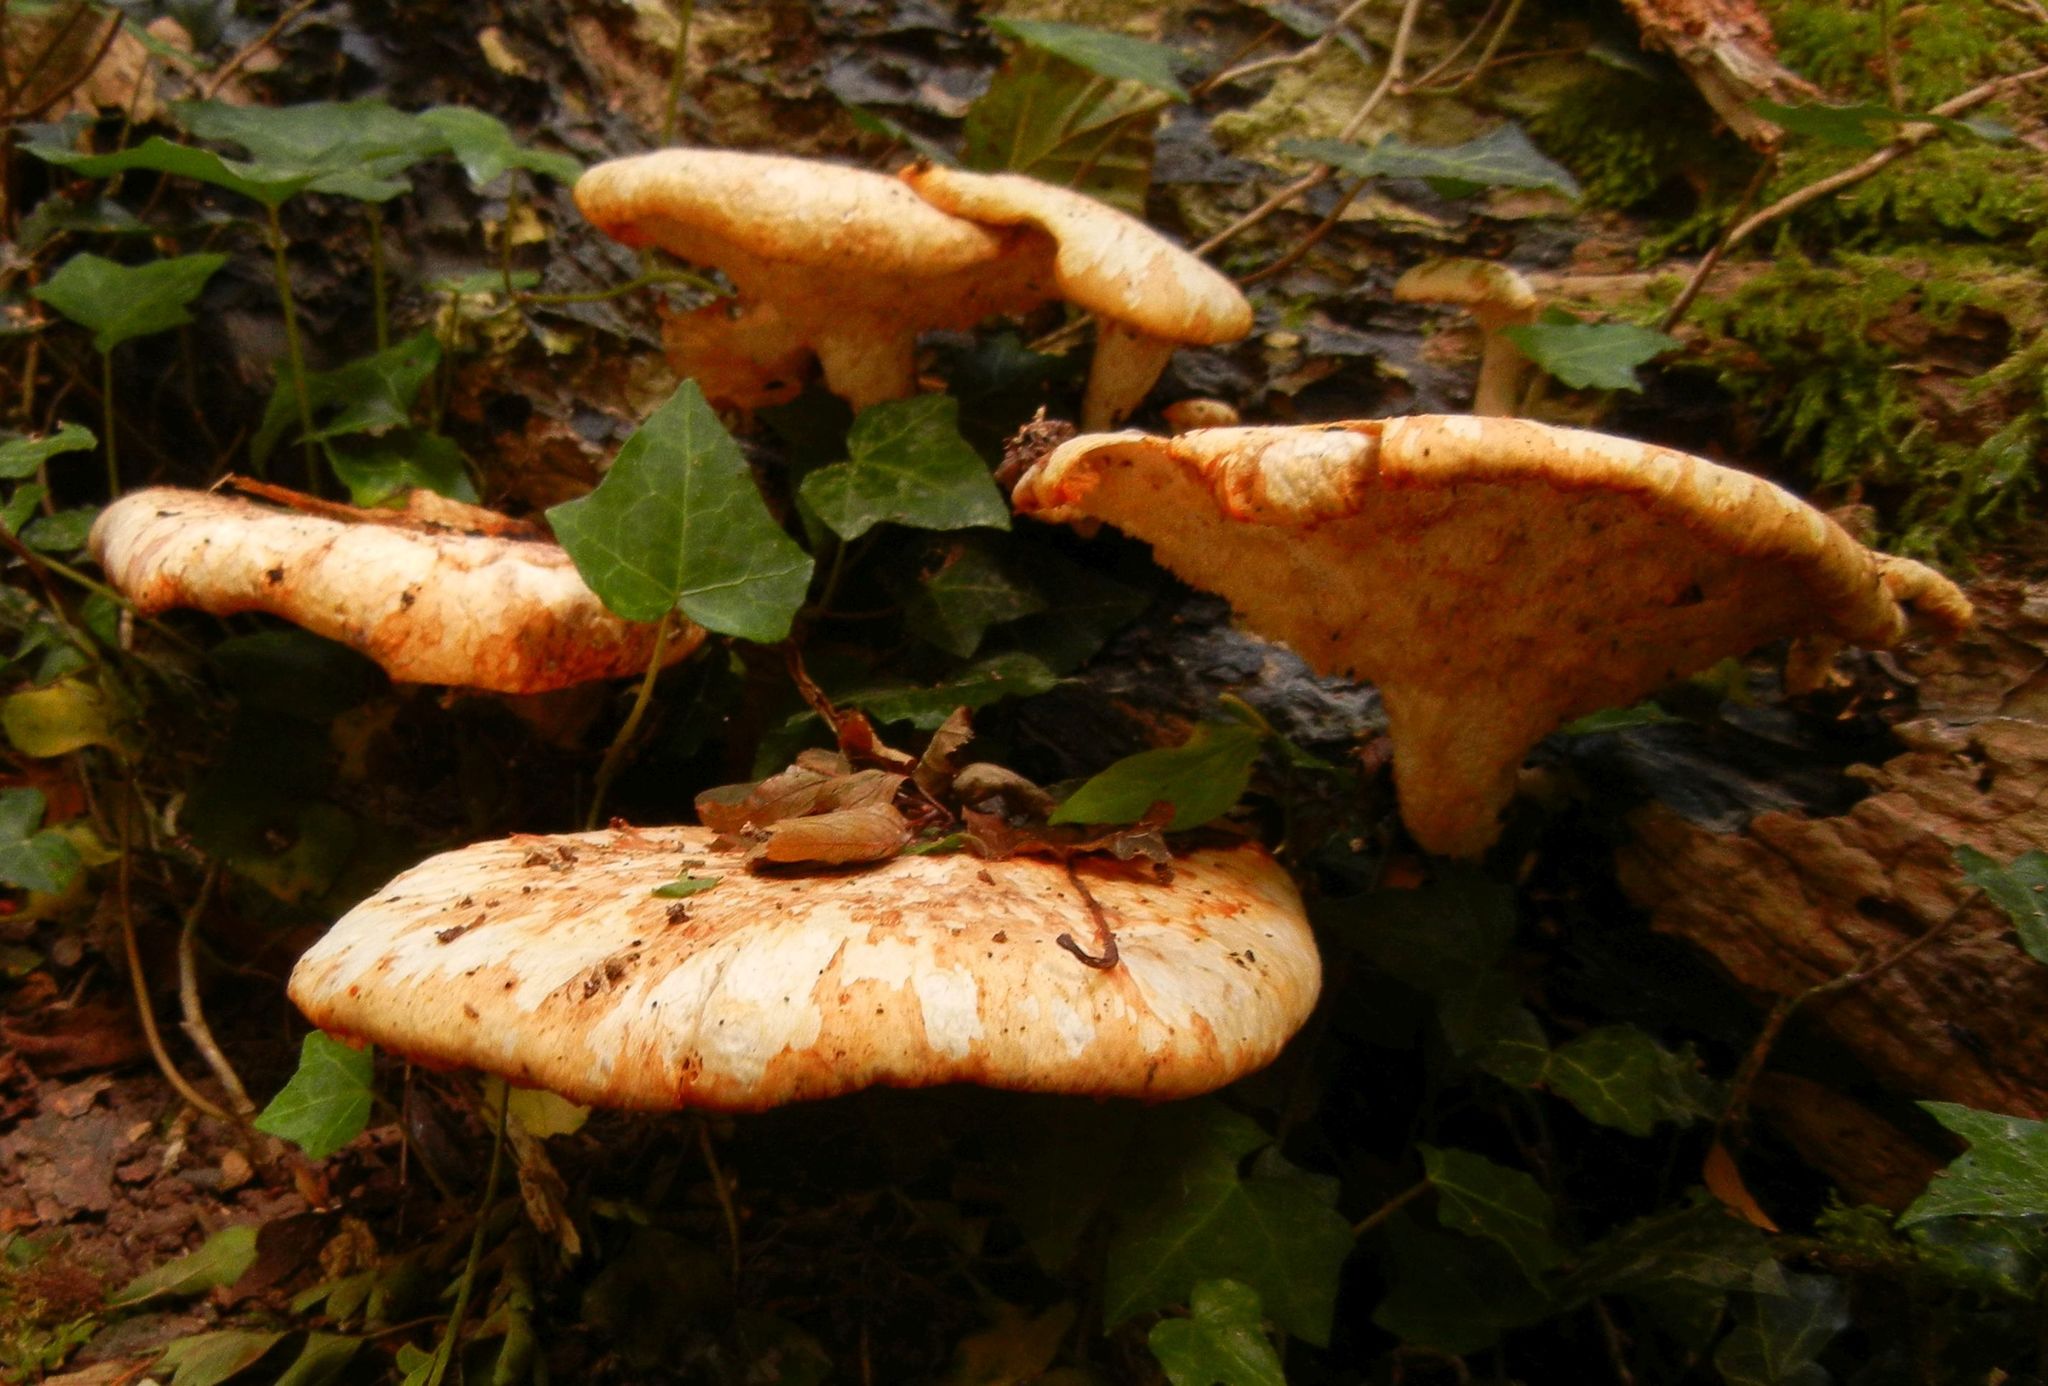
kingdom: Fungi
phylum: Basidiomycota
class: Agaricomycetes
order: Polyporales
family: Polyporaceae
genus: Cerioporus
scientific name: Cerioporus squamosus
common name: Dryad's saddle
